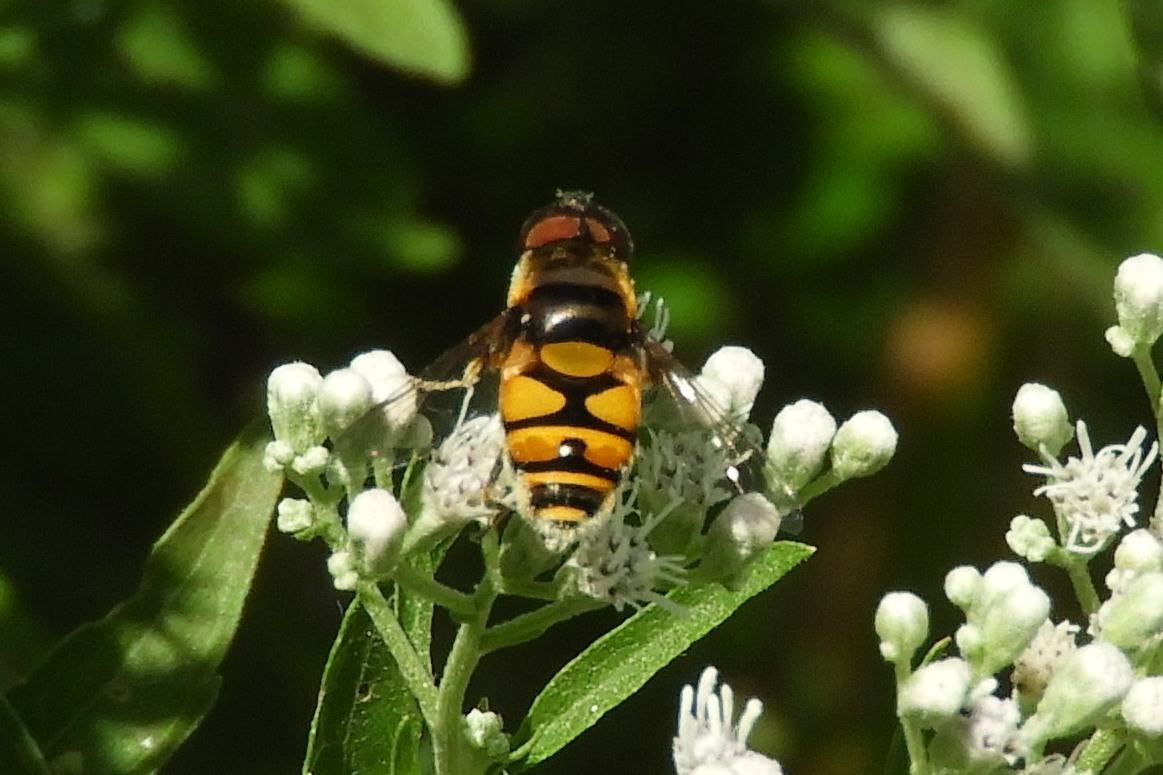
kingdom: Animalia
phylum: Arthropoda
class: Insecta
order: Diptera
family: Syrphidae
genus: Eristalis
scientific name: Eristalis transversa
